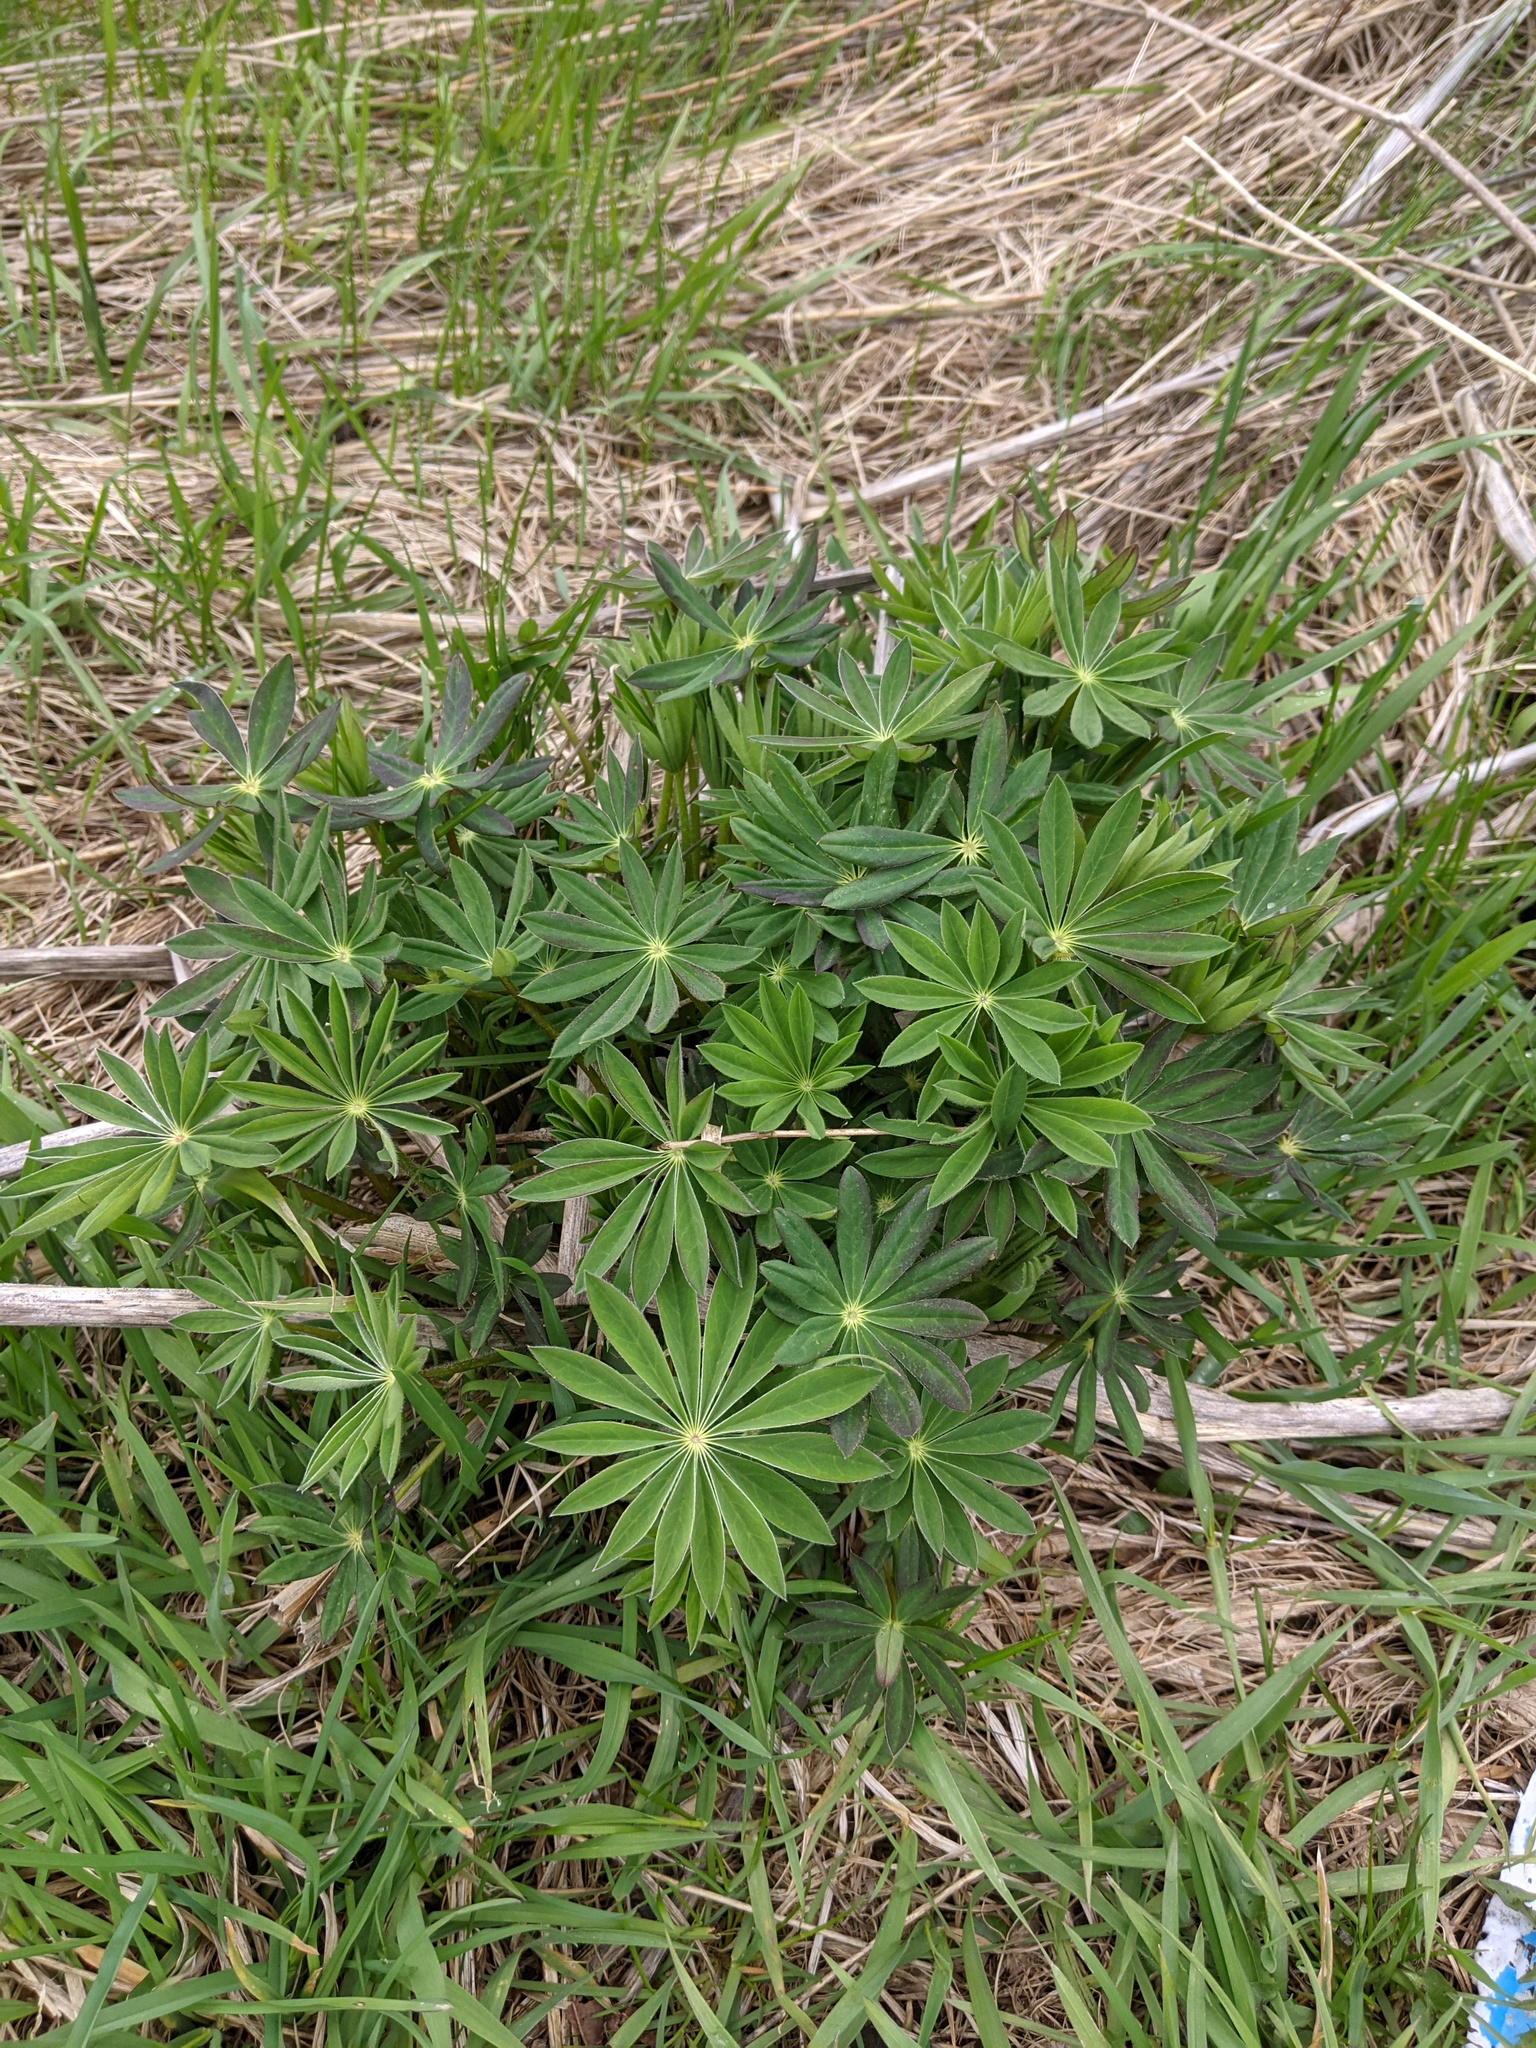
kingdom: Plantae
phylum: Tracheophyta
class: Magnoliopsida
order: Fabales
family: Fabaceae
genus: Lupinus
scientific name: Lupinus polyphyllus
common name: Garden lupin
